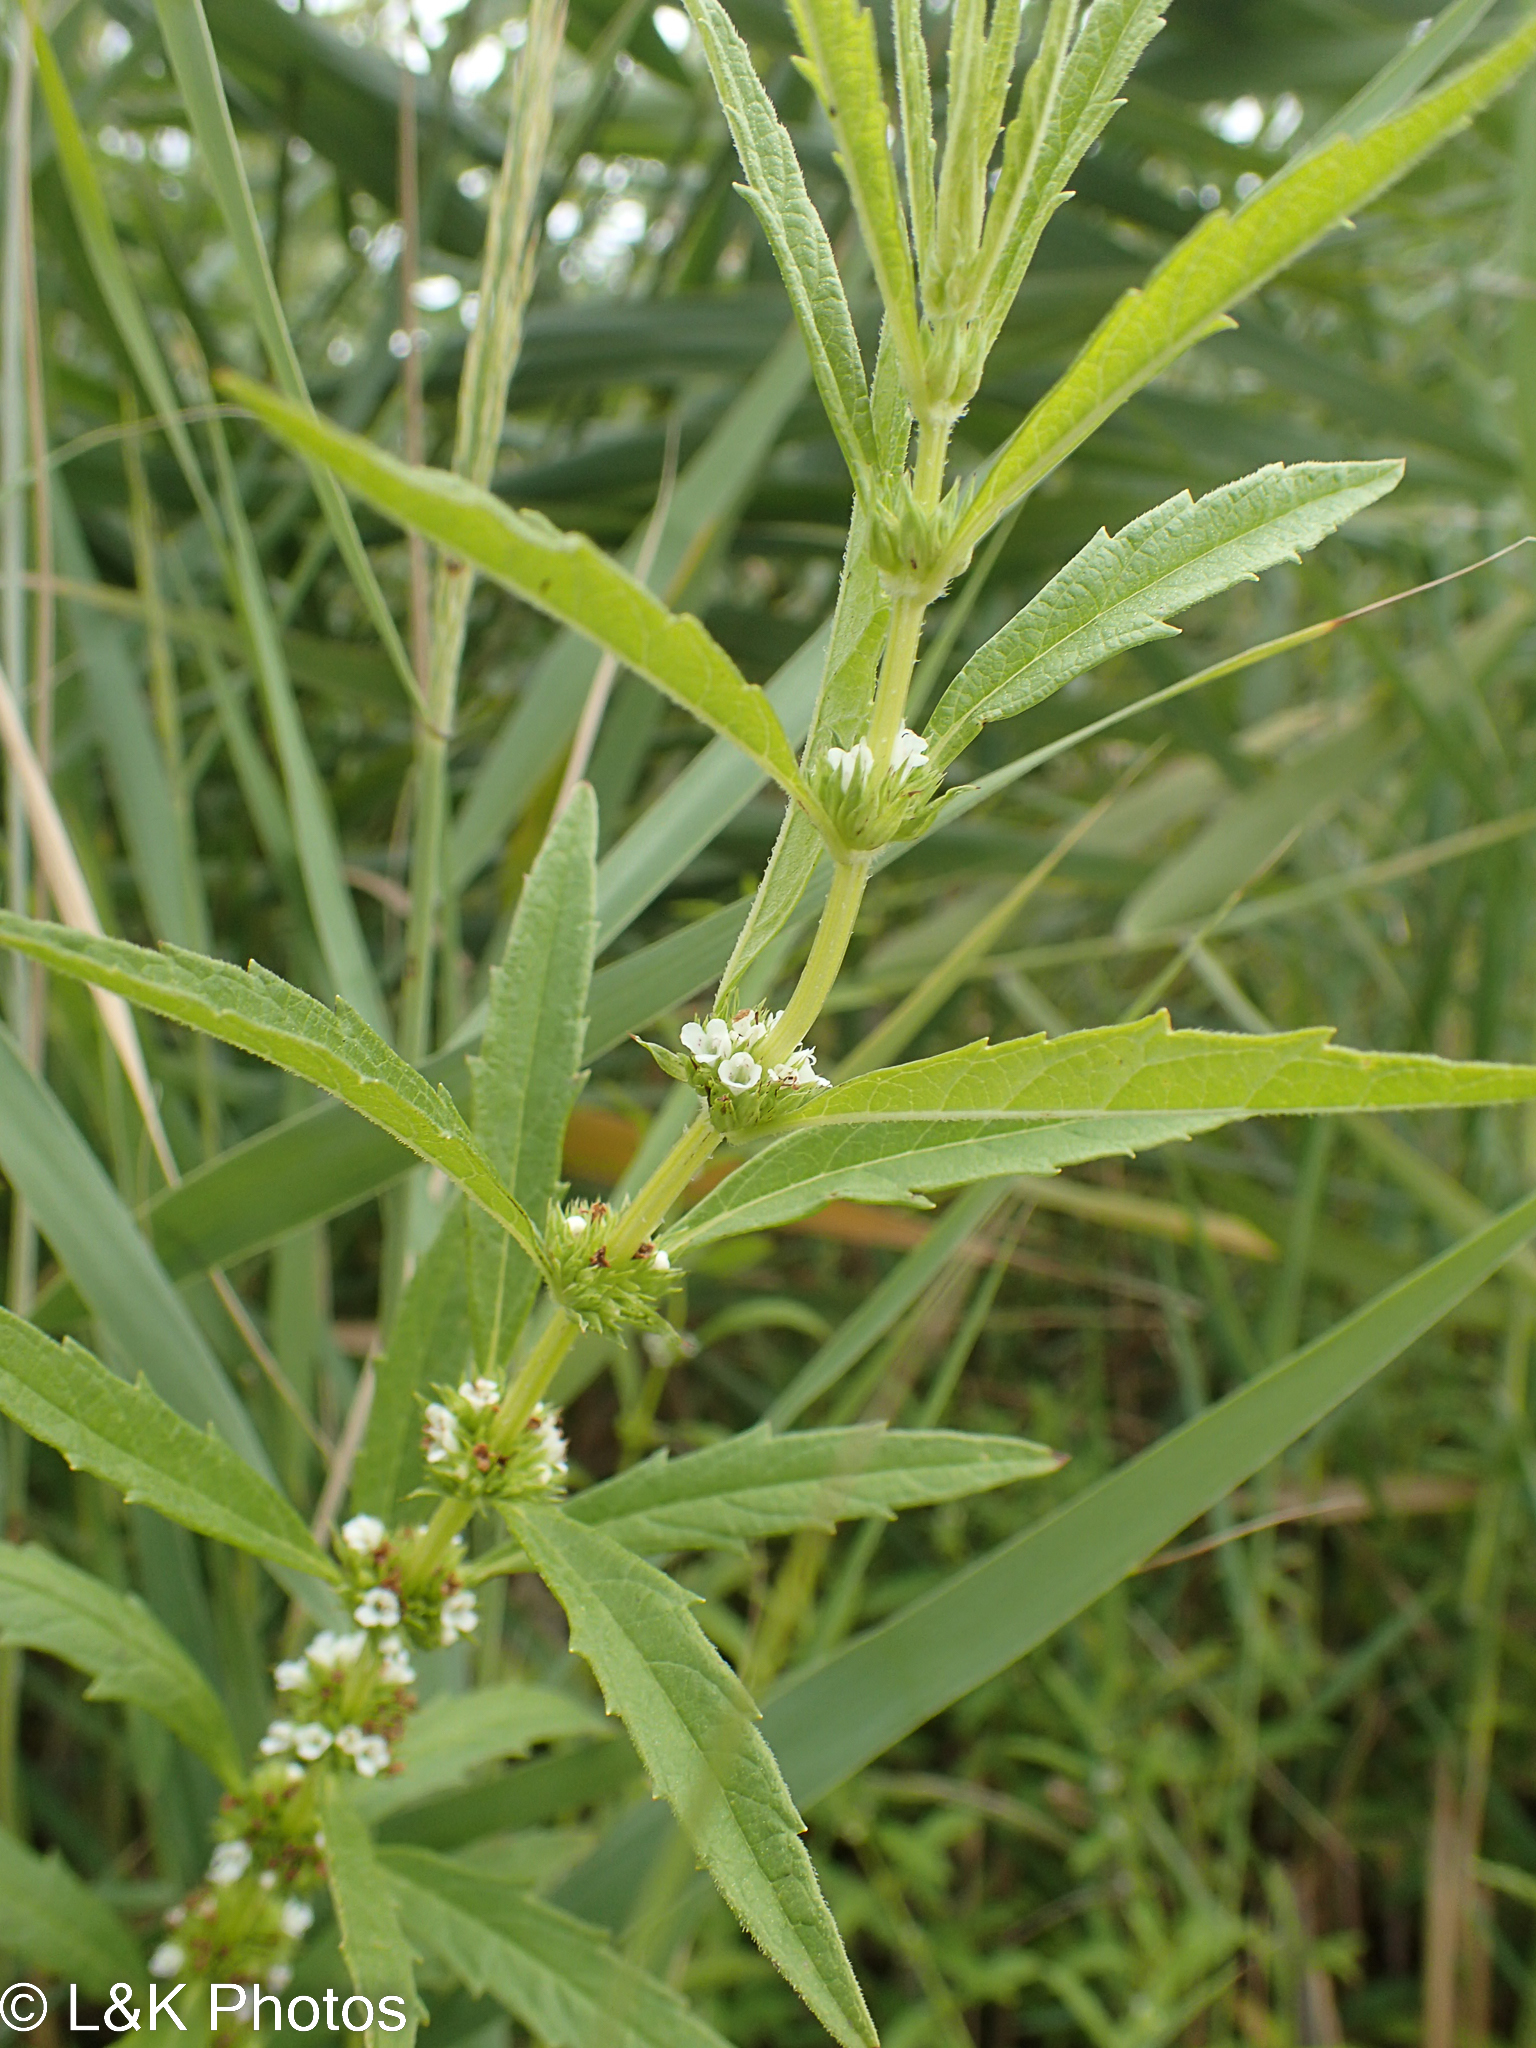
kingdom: Plantae
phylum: Tracheophyta
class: Magnoliopsida
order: Lamiales
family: Lamiaceae
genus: Lycopus
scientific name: Lycopus australis
